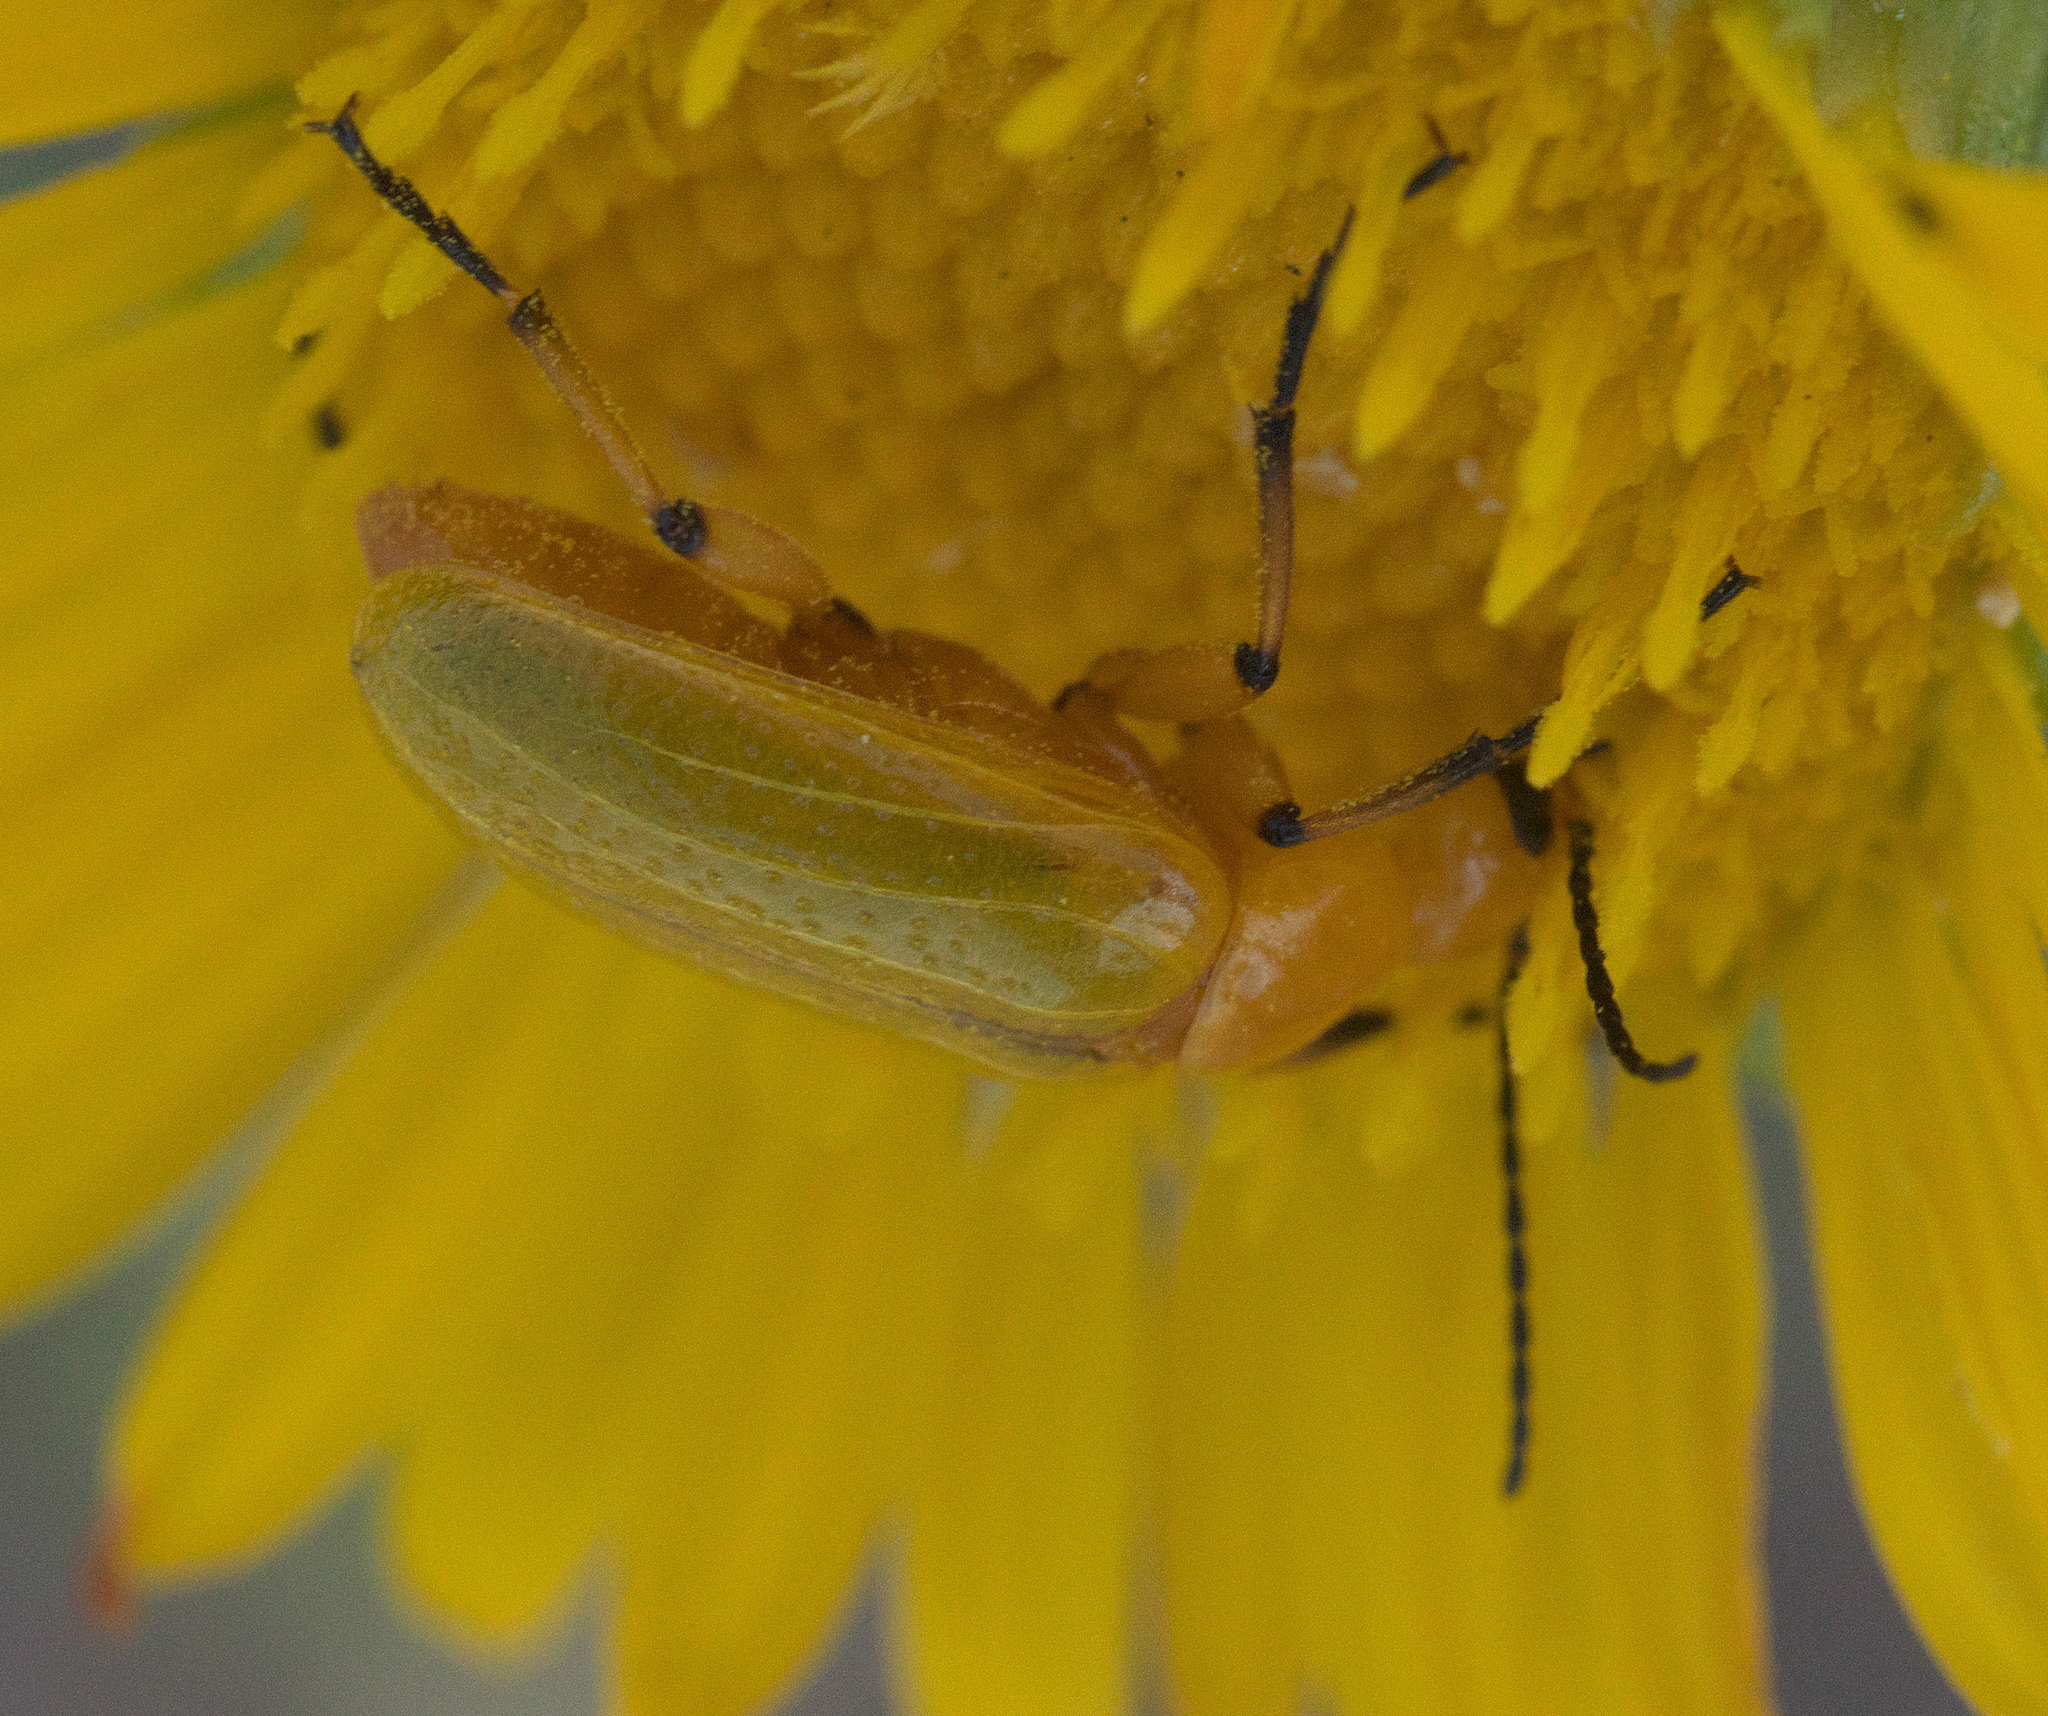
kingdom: Animalia
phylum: Arthropoda
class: Insecta
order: Coleoptera
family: Meloidae
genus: Zonitis
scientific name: Zonitis sayi
